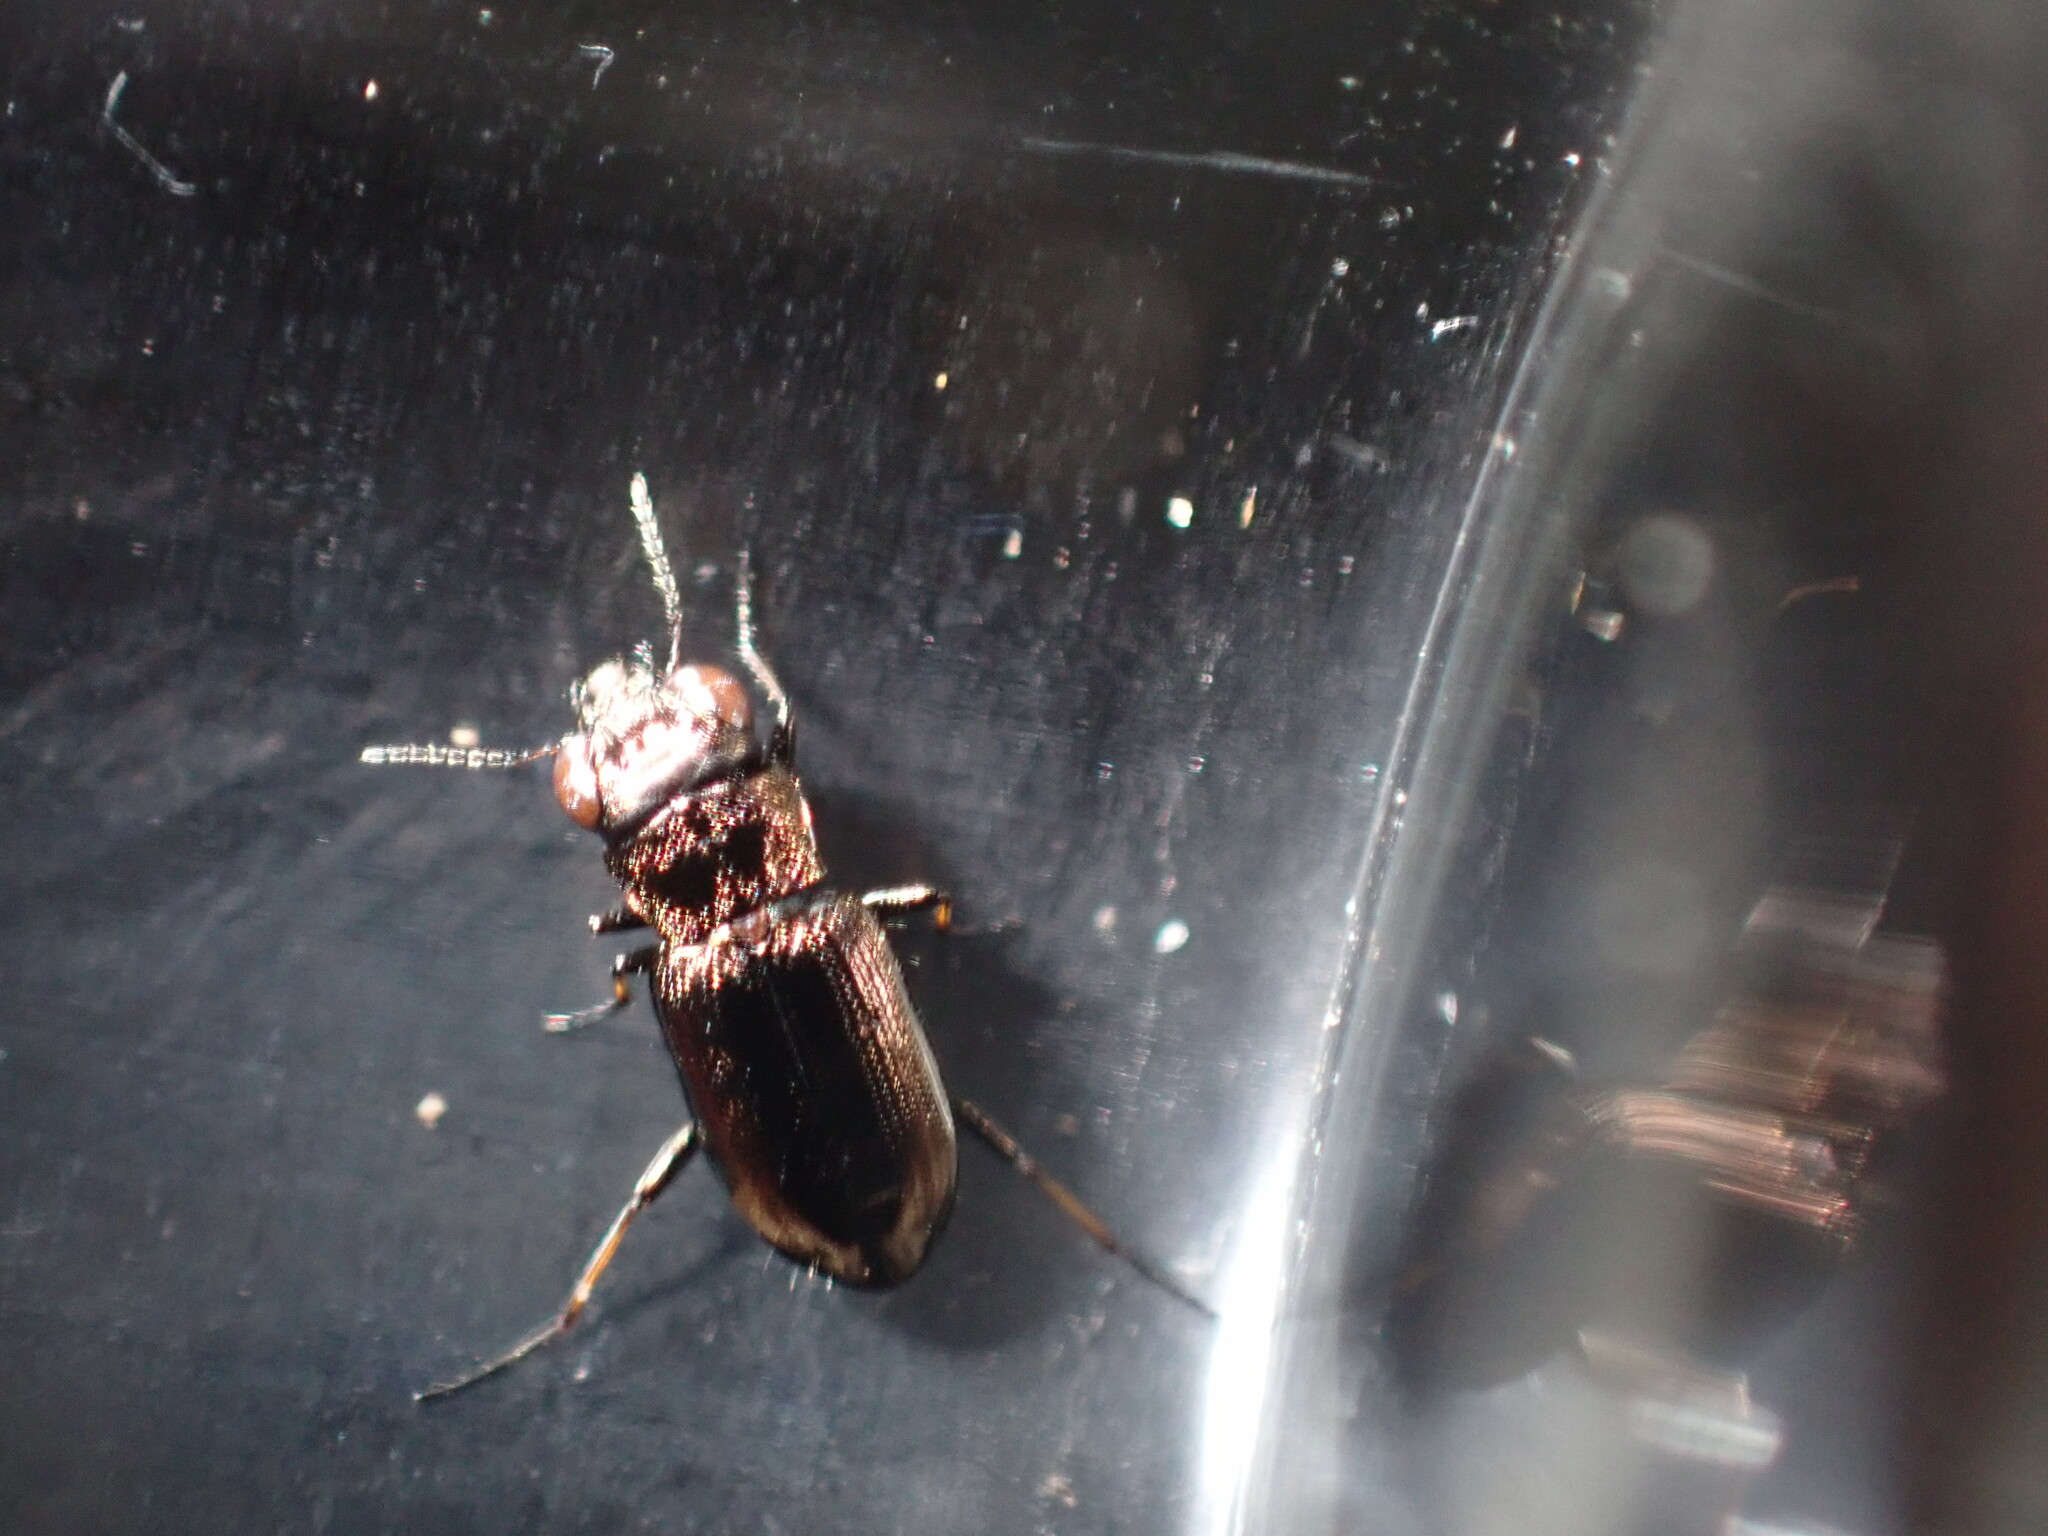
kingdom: Animalia
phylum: Arthropoda
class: Insecta
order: Coleoptera
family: Carabidae
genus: Notiophilus
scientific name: Notiophilus biguttatus
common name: Spotted gazelle beetle
